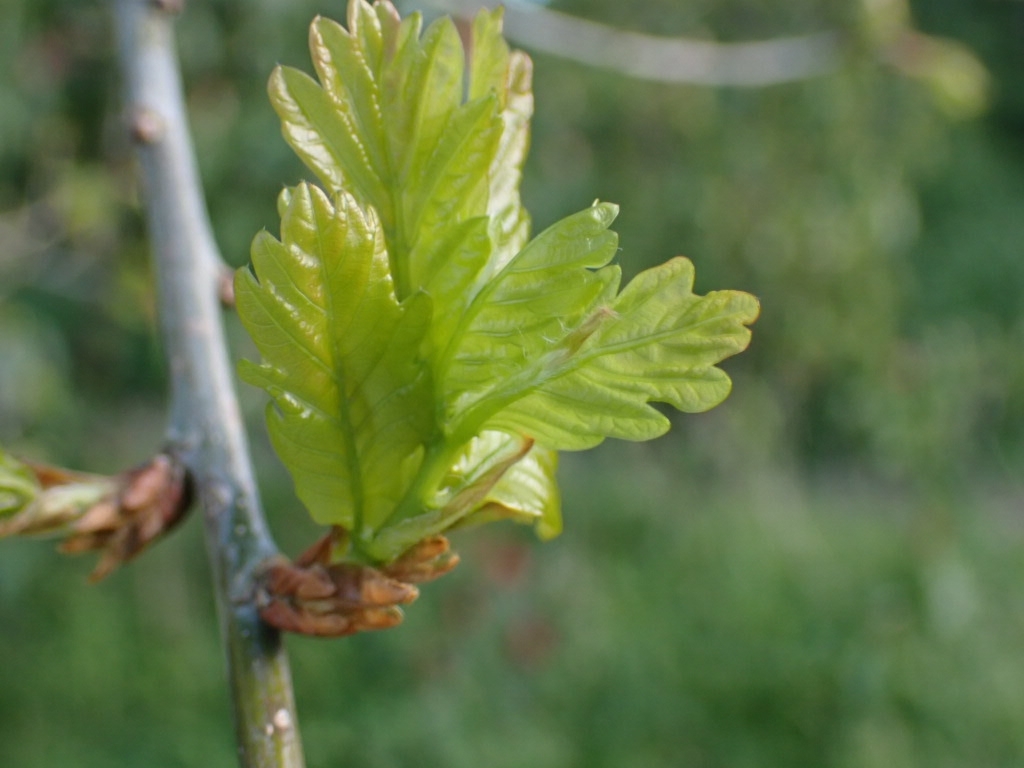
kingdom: Plantae
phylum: Tracheophyta
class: Magnoliopsida
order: Fagales
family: Fagaceae
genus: Quercus
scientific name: Quercus robur
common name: Pedunculate oak
